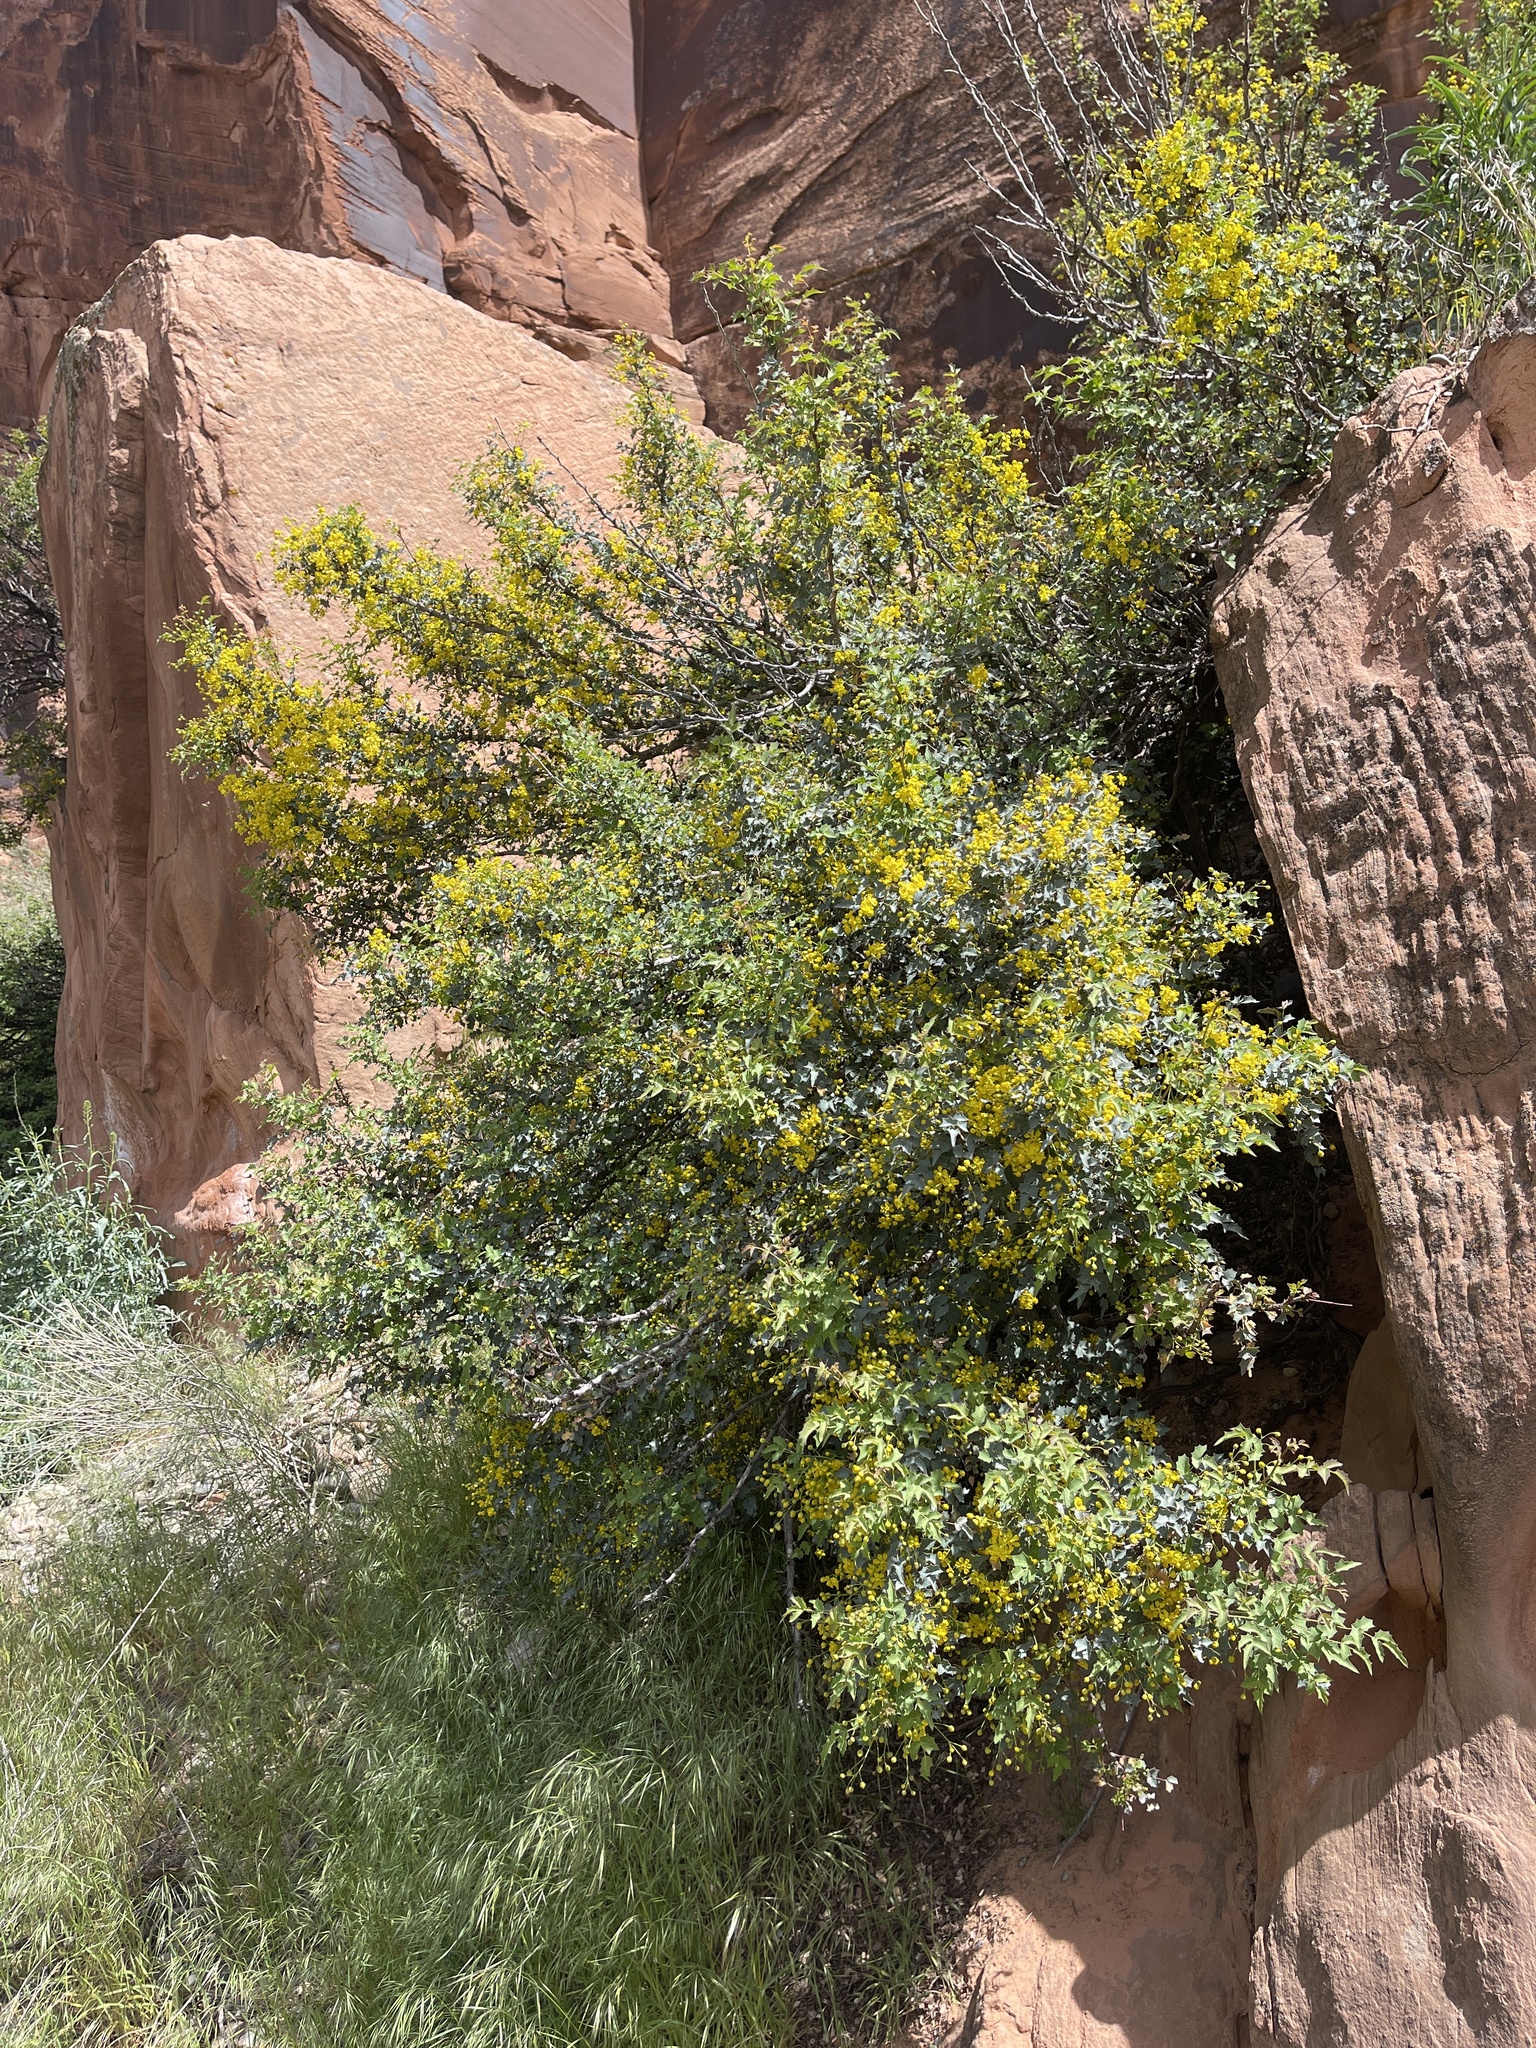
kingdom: Plantae
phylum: Tracheophyta
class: Magnoliopsida
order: Ranunculales
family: Berberidaceae
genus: Alloberberis
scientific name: Alloberberis fremontii
